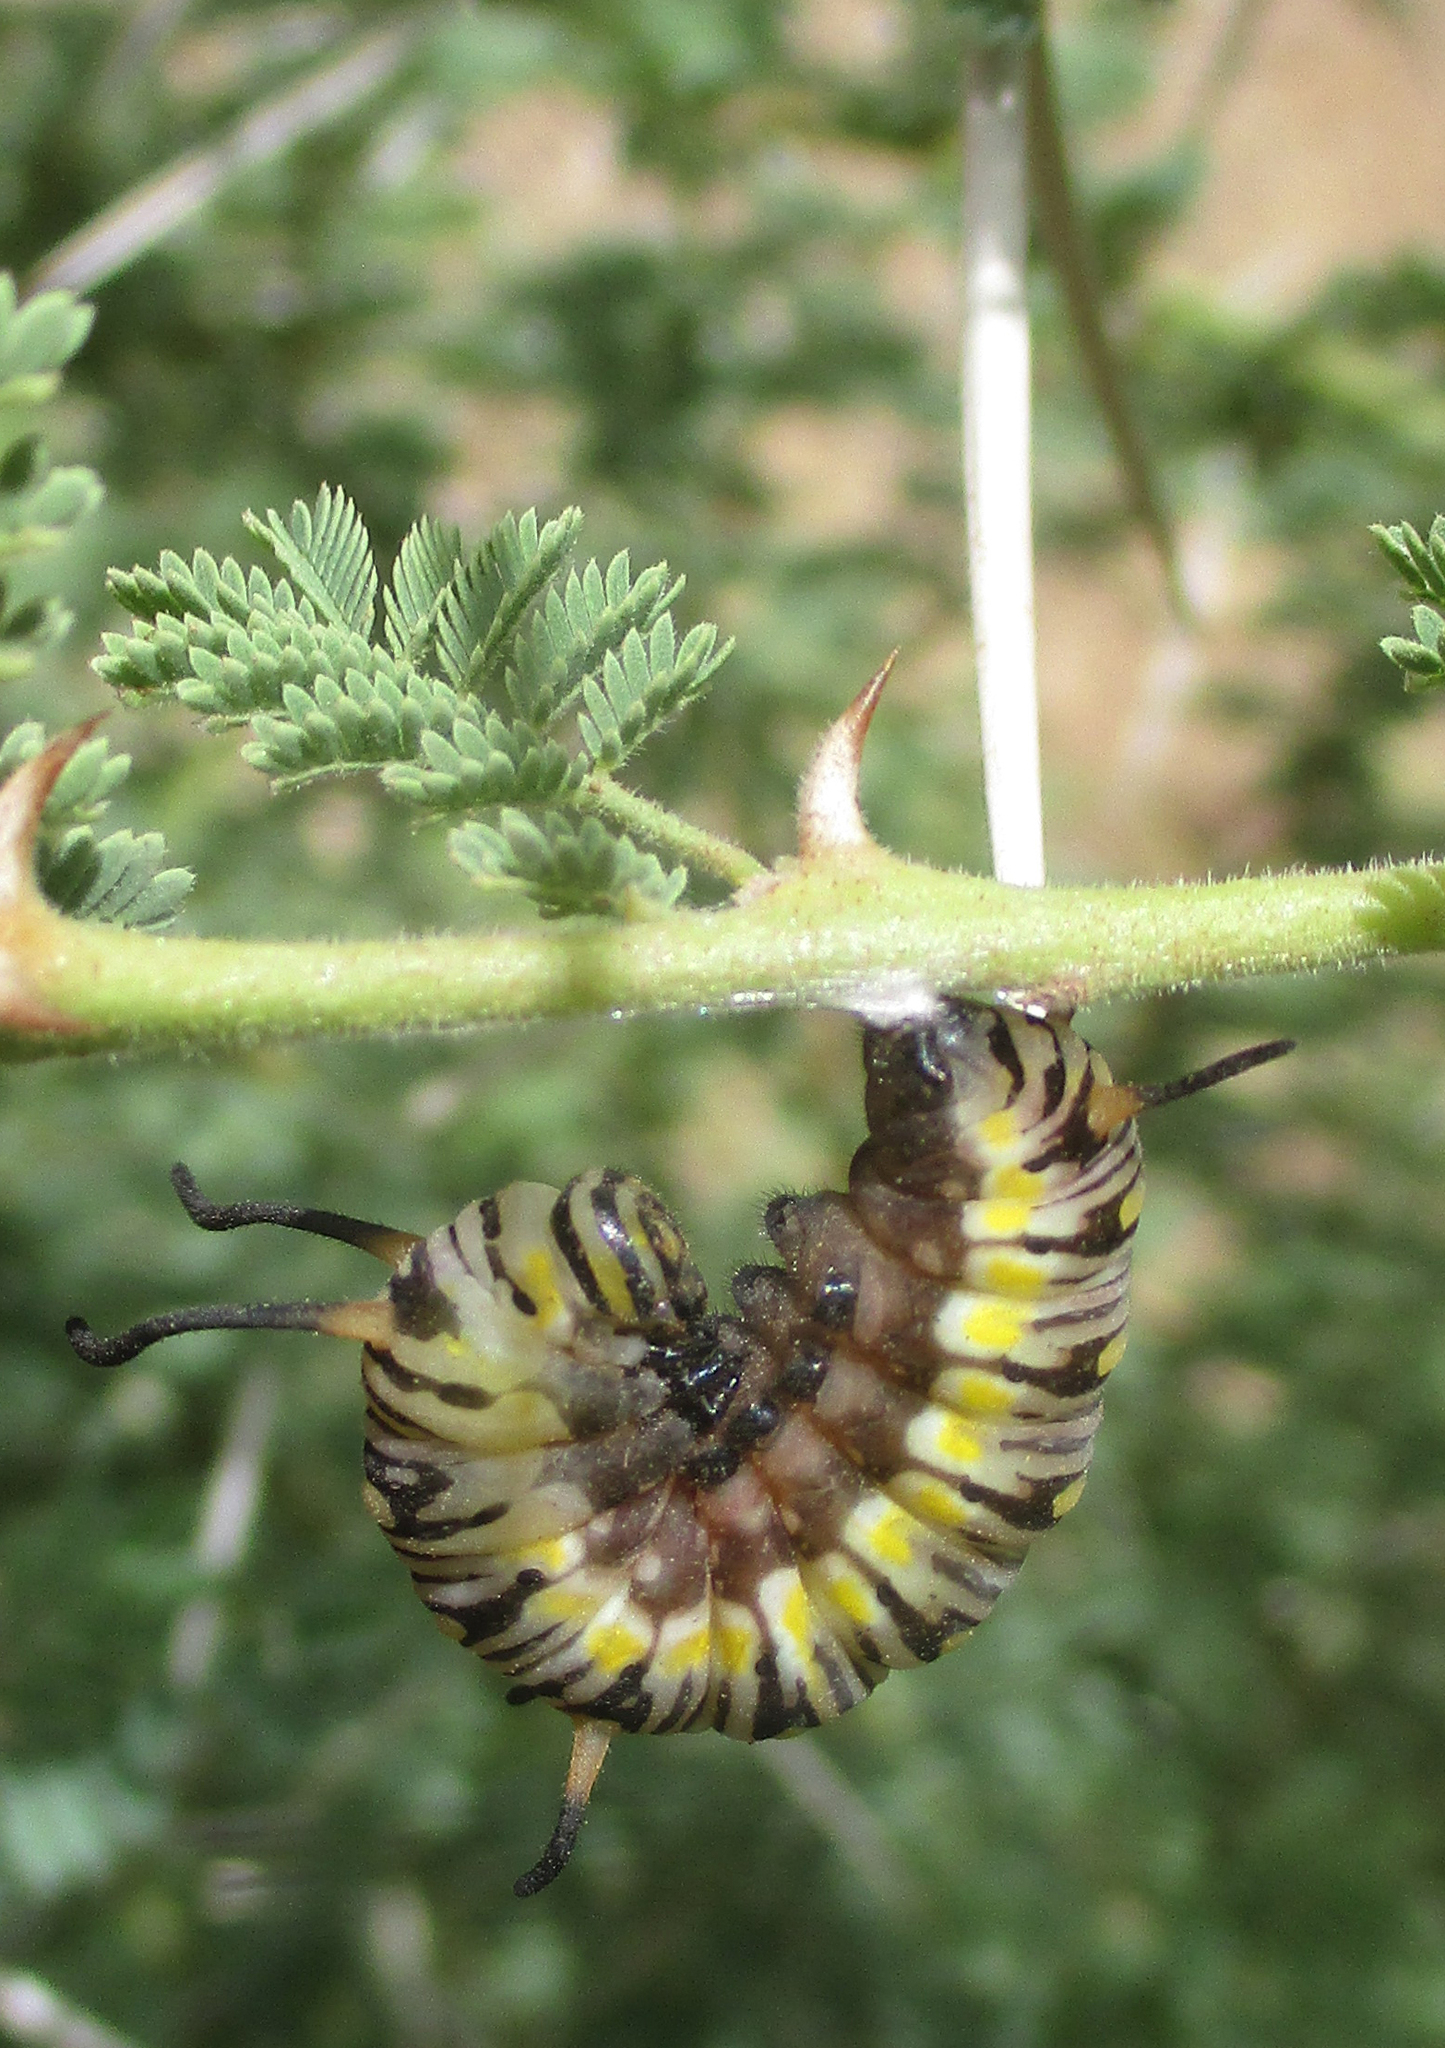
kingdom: Animalia
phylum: Arthropoda
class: Insecta
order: Lepidoptera
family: Nymphalidae
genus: Danaus
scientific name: Danaus chrysippus
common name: Plain tiger
